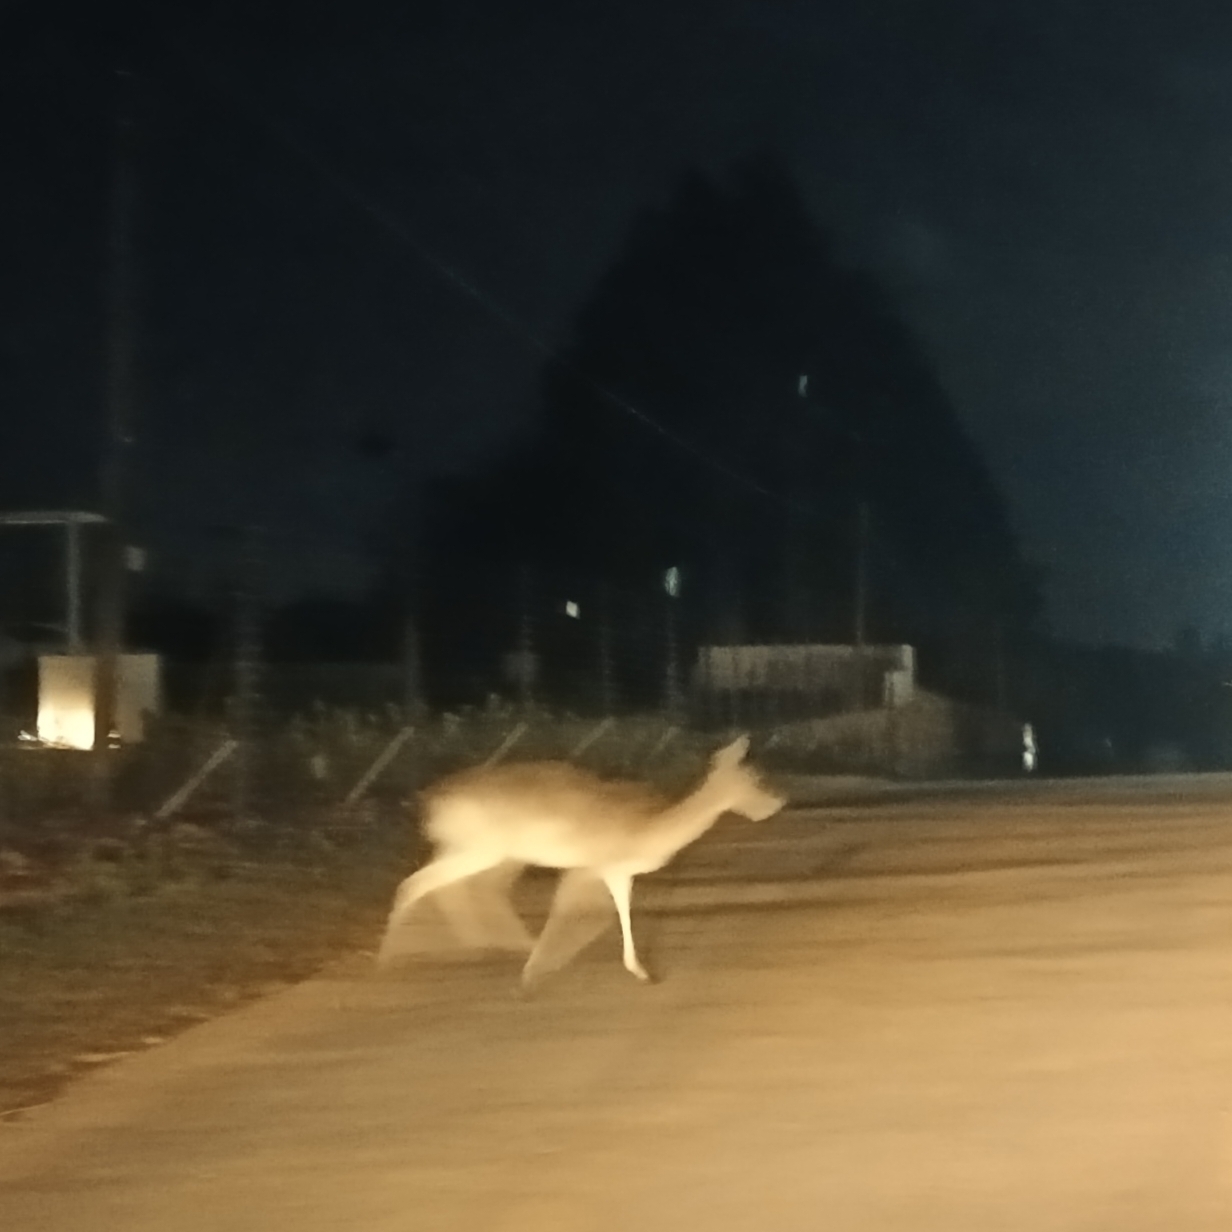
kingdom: Animalia
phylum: Chordata
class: Mammalia
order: Artiodactyla
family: Bovidae
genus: Redunca
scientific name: Redunca arundinum
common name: Southern reedbuck
